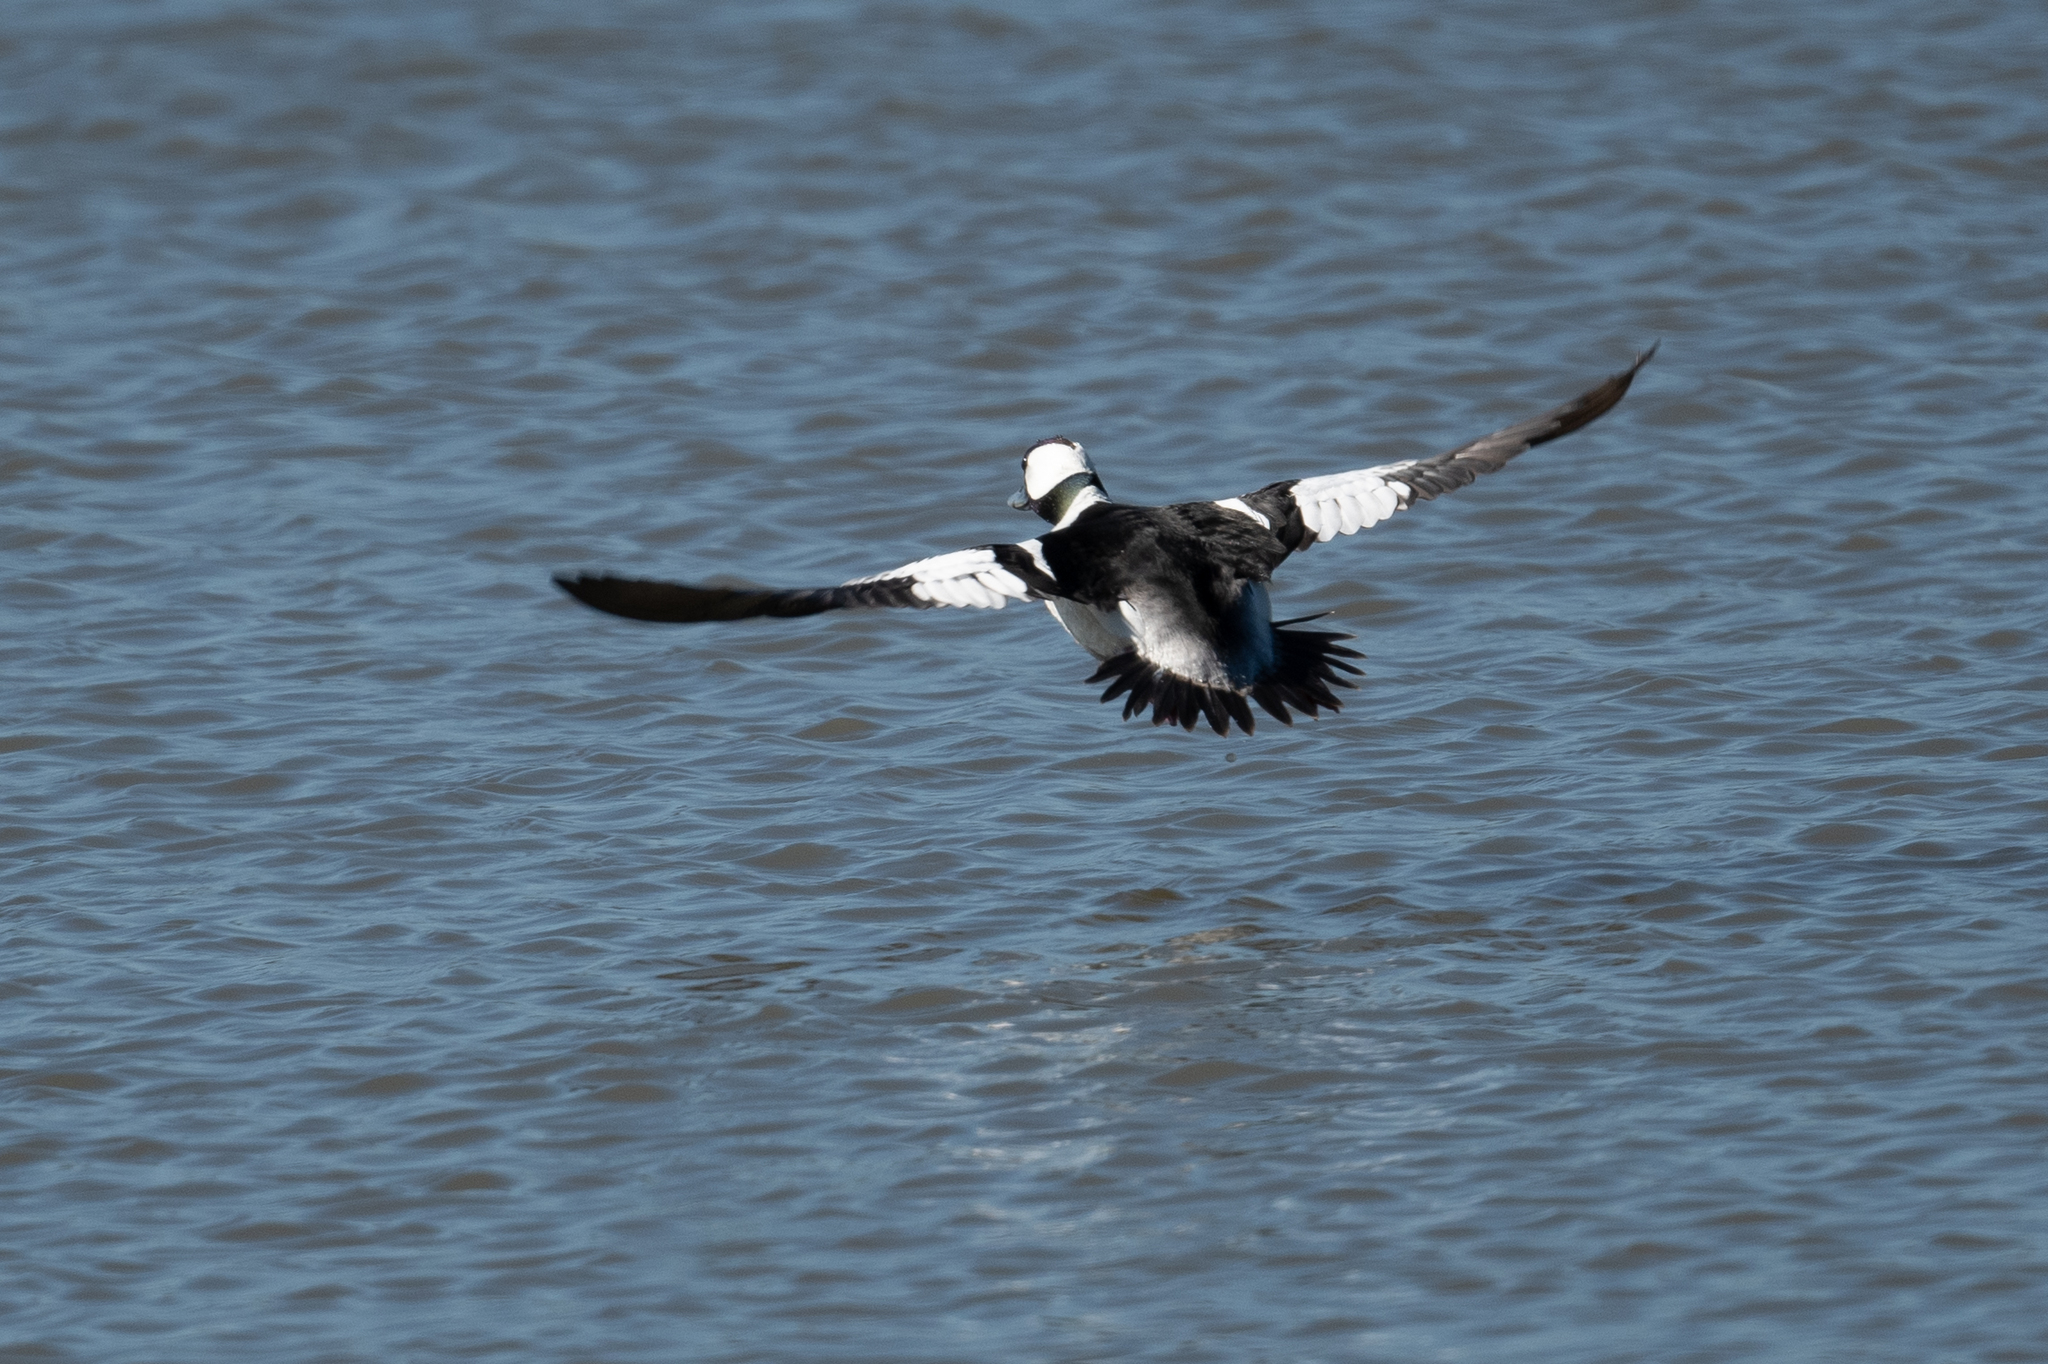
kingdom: Animalia
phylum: Chordata
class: Aves
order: Anseriformes
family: Anatidae
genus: Bucephala
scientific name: Bucephala albeola
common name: Bufflehead
